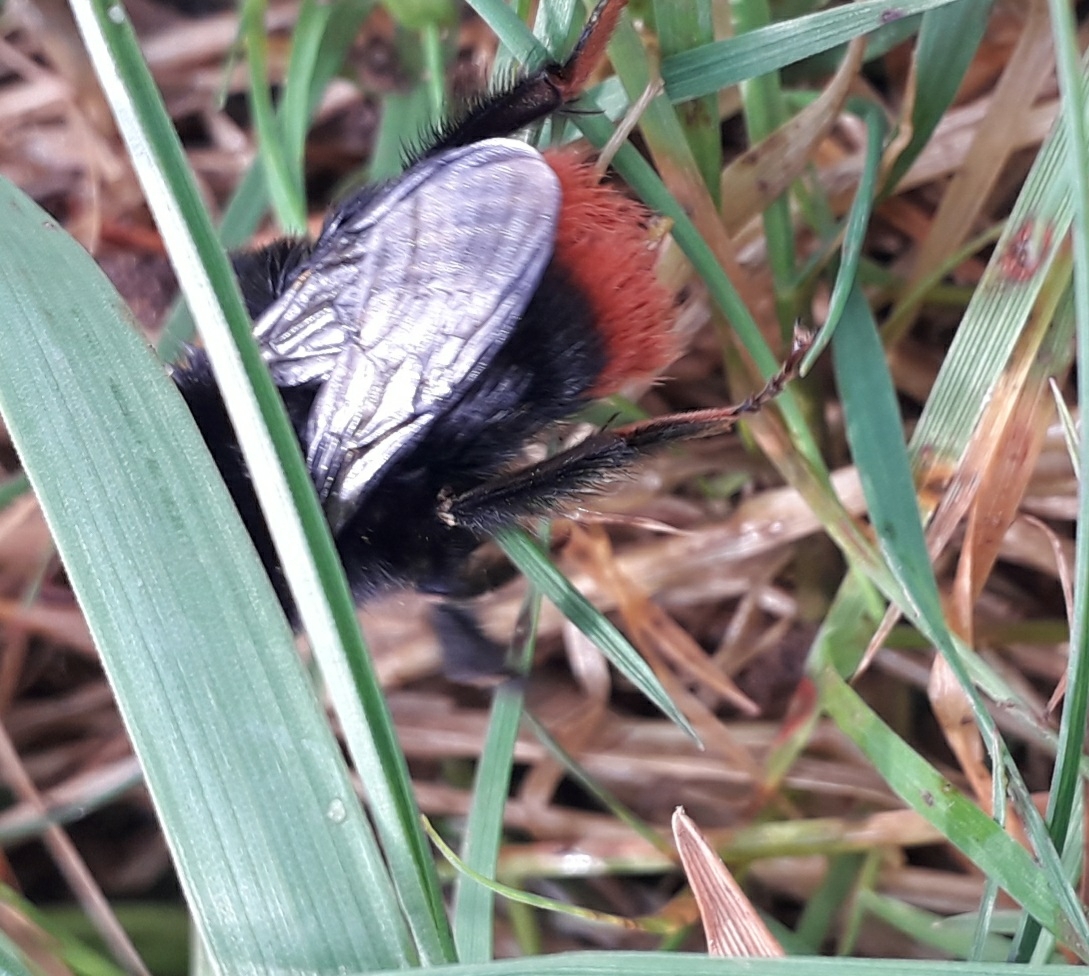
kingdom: Animalia
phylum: Arthropoda
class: Insecta
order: Hymenoptera
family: Apidae
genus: Bombus
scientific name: Bombus lapidarius
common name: Large red-tailed humble-bee
